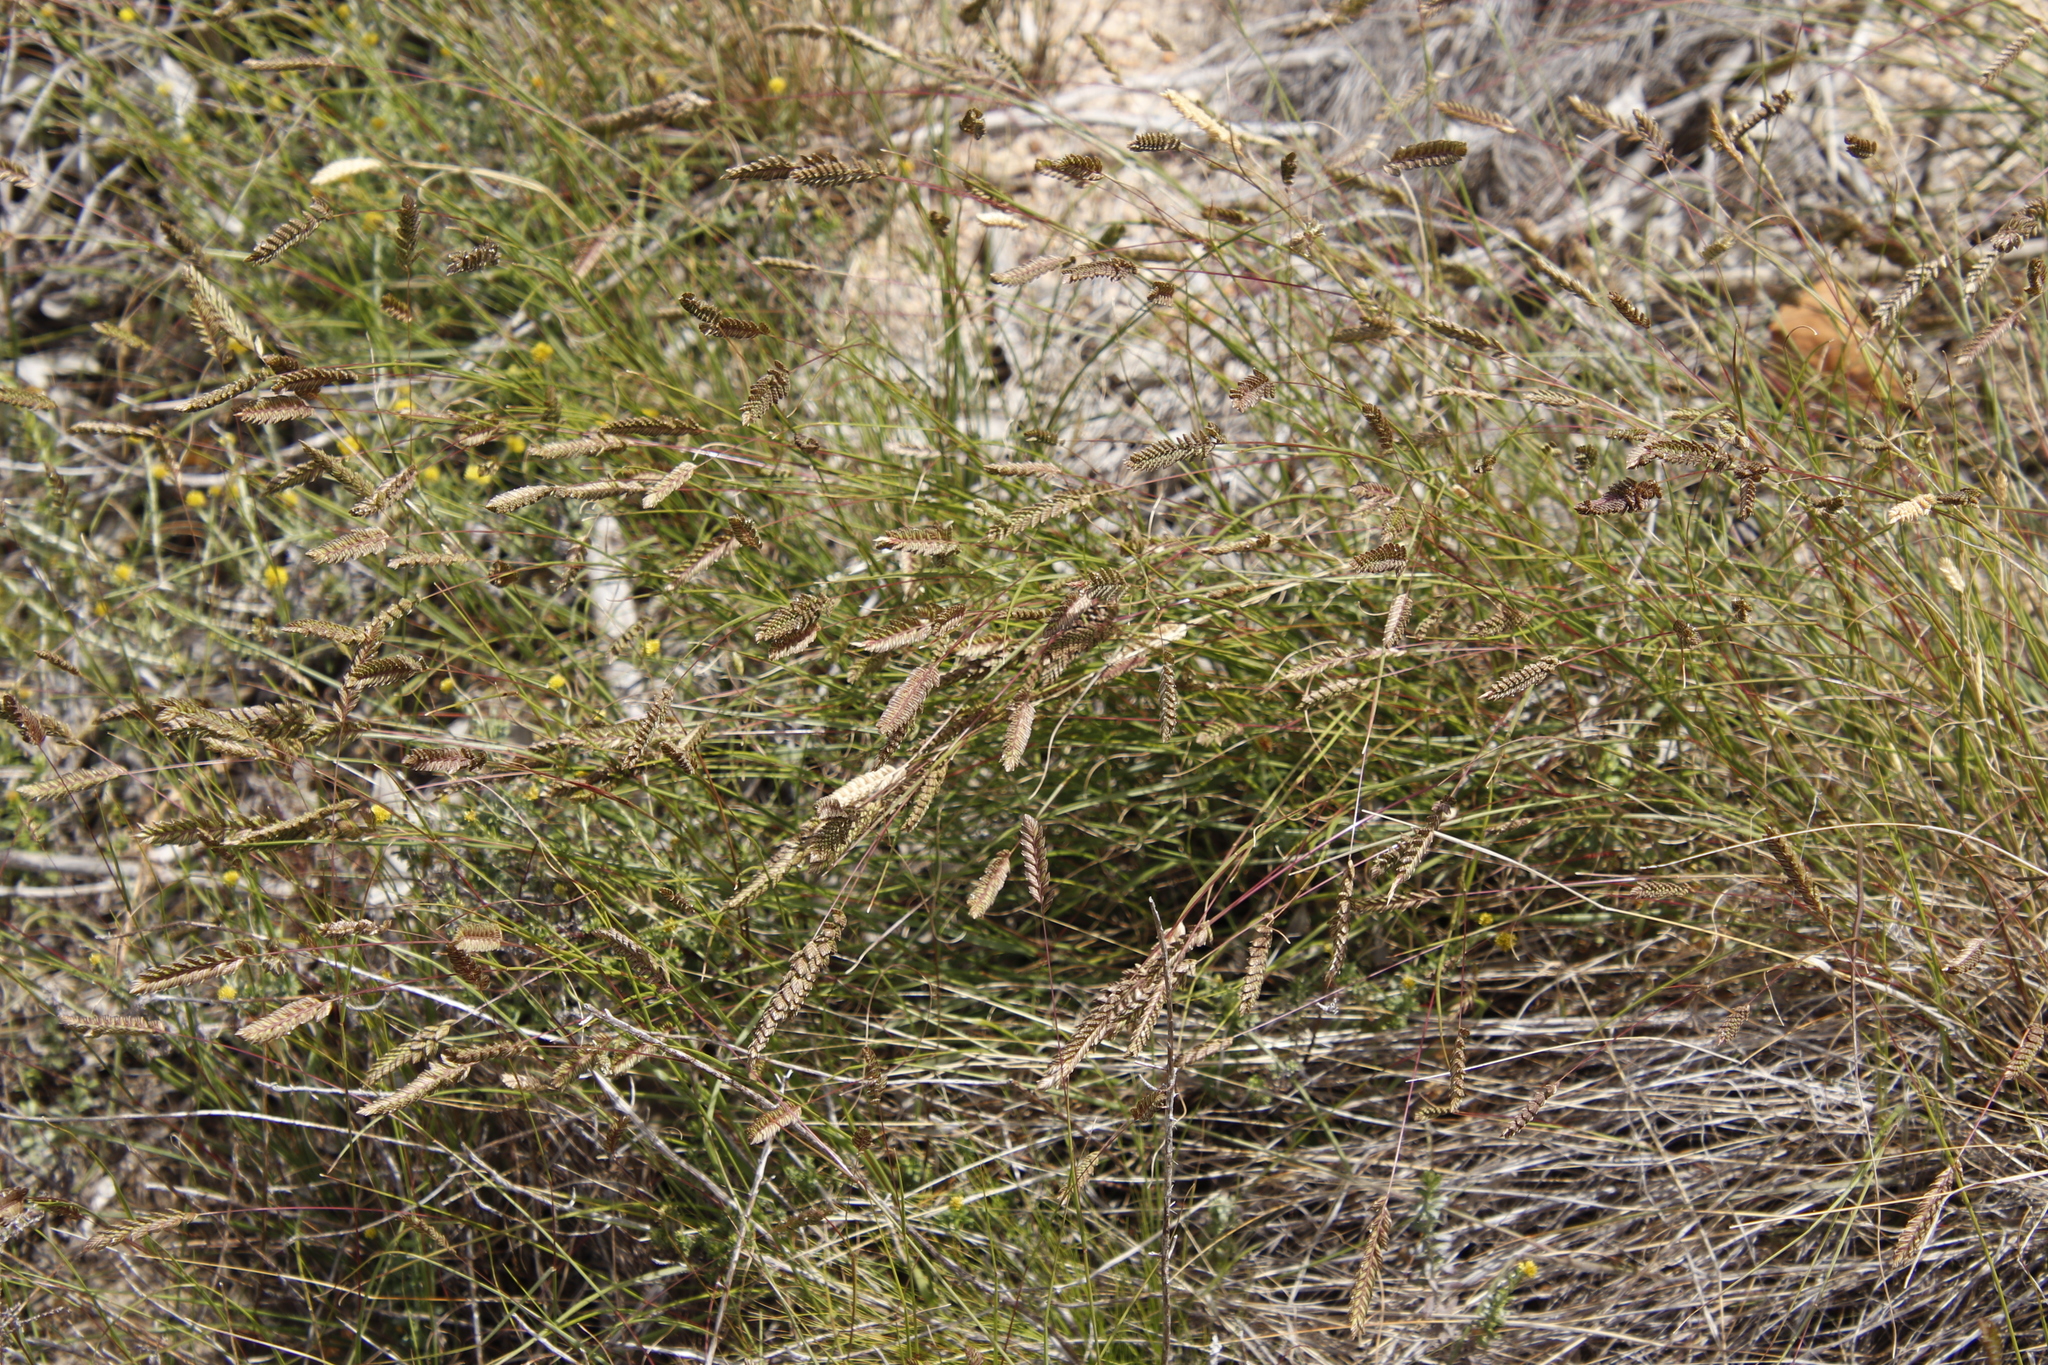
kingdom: Plantae
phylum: Tracheophyta
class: Liliopsida
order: Poales
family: Poaceae
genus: Tribolium
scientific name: Tribolium uniolae
